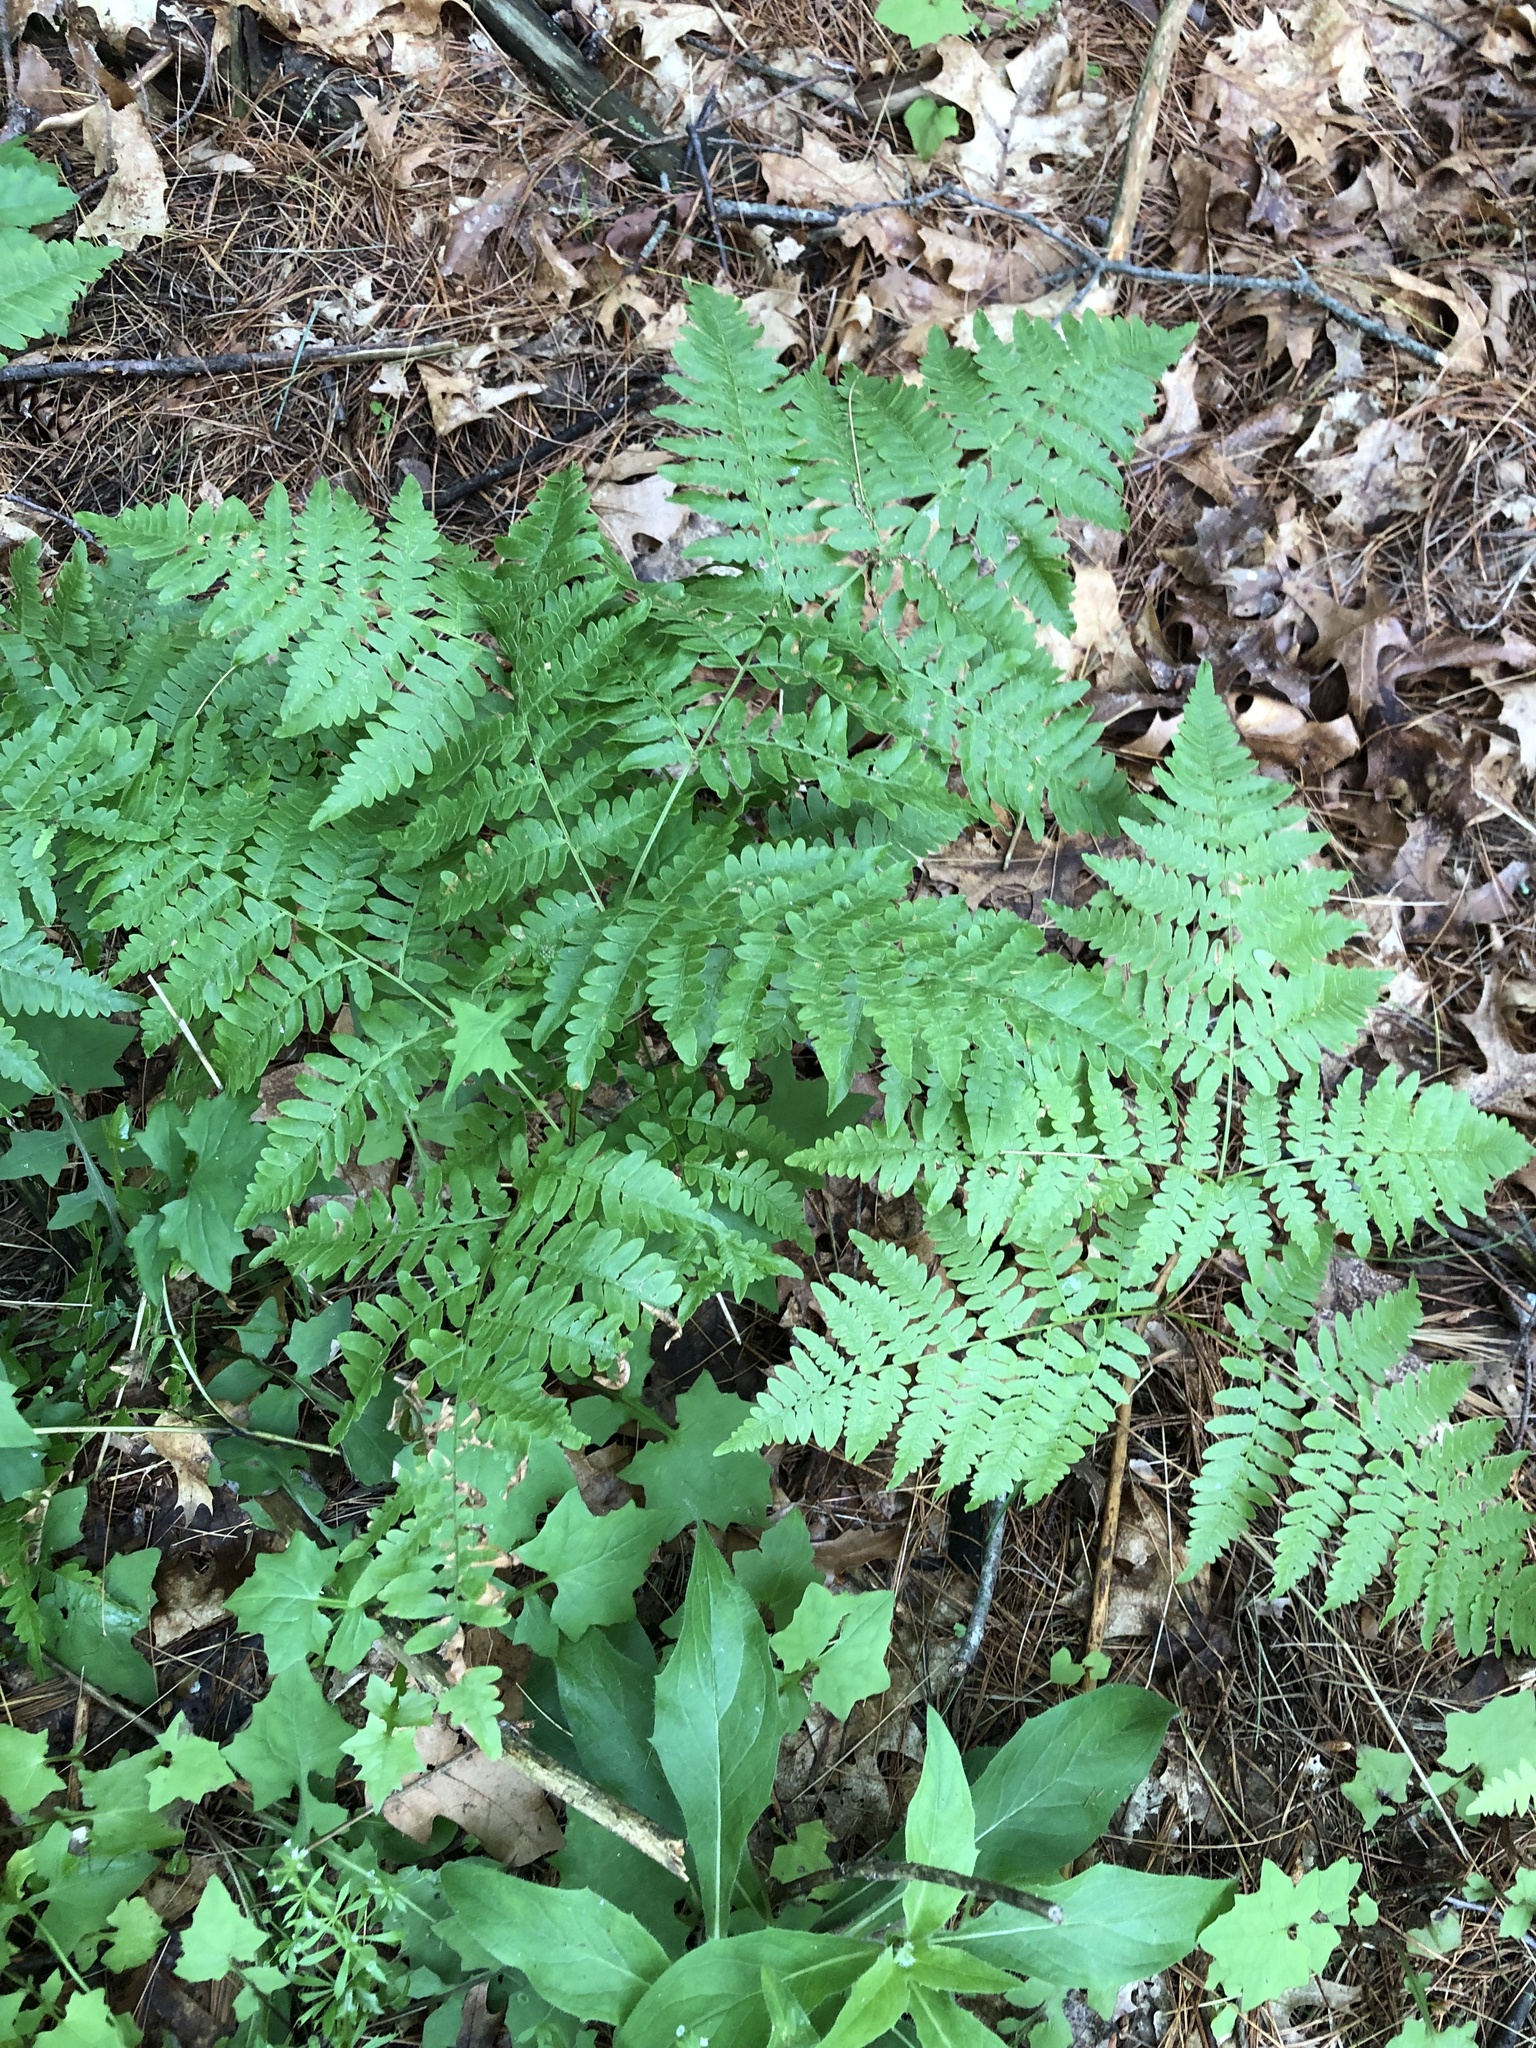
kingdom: Plantae
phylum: Tracheophyta
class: Polypodiopsida
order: Polypodiales
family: Dennstaedtiaceae
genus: Pteridium
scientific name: Pteridium aquilinum
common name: Bracken
